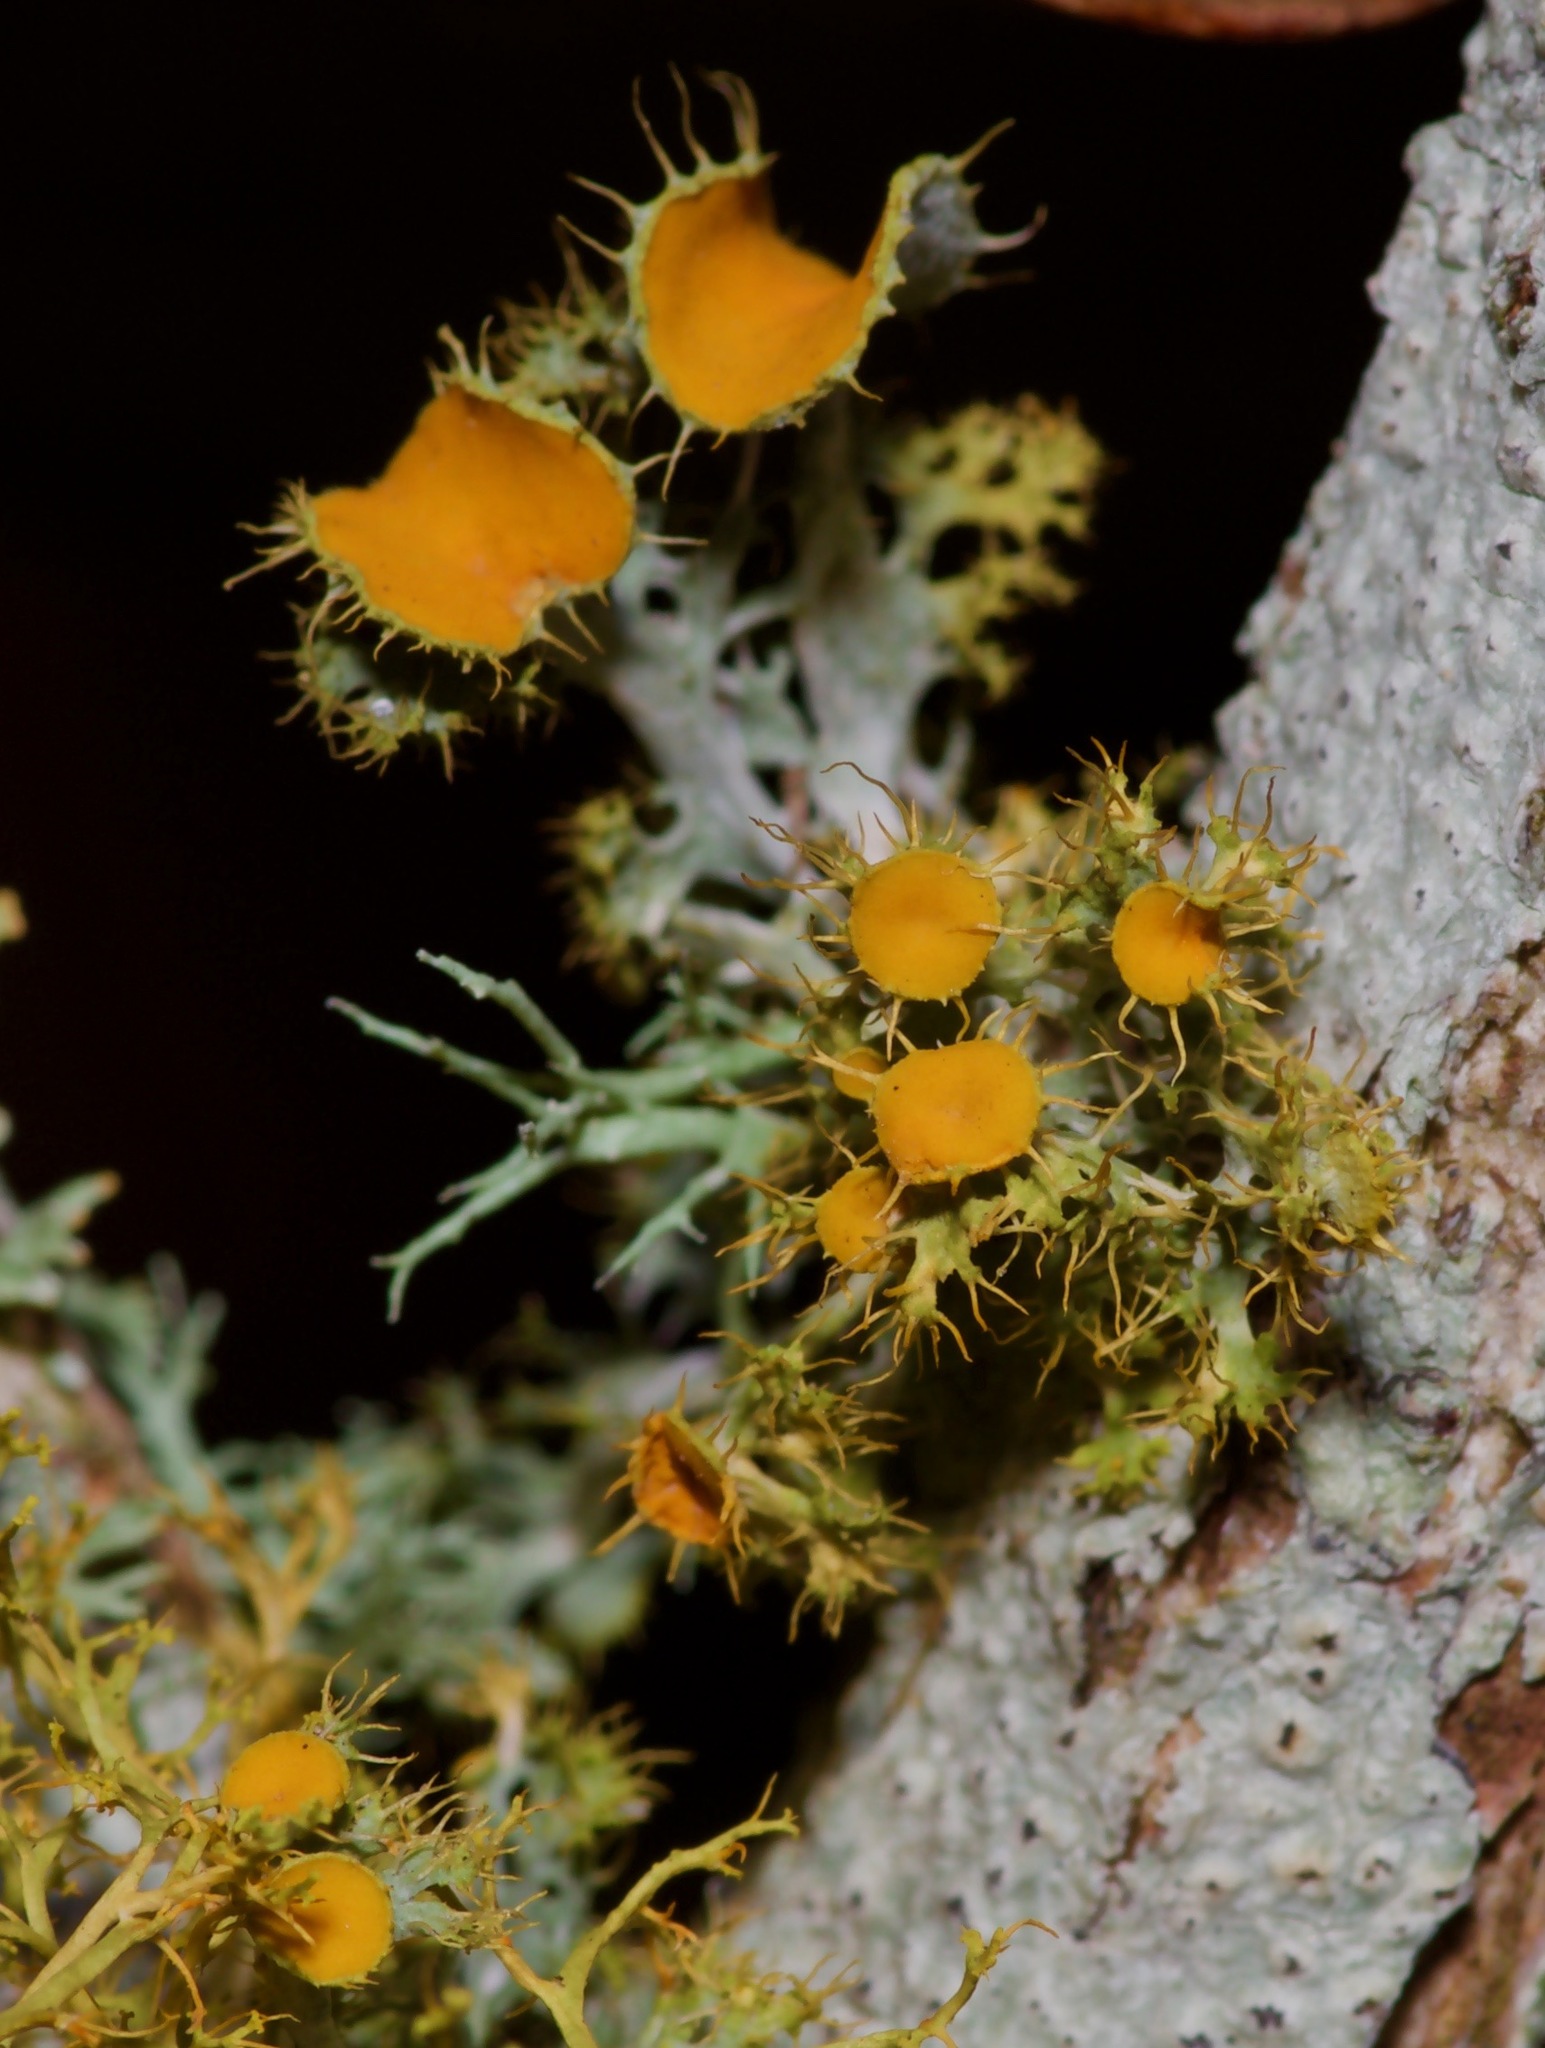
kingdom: Fungi
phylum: Ascomycota
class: Lecanoromycetes
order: Teloschistales
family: Teloschistaceae
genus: Niorma
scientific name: Niorma chrysophthalma
